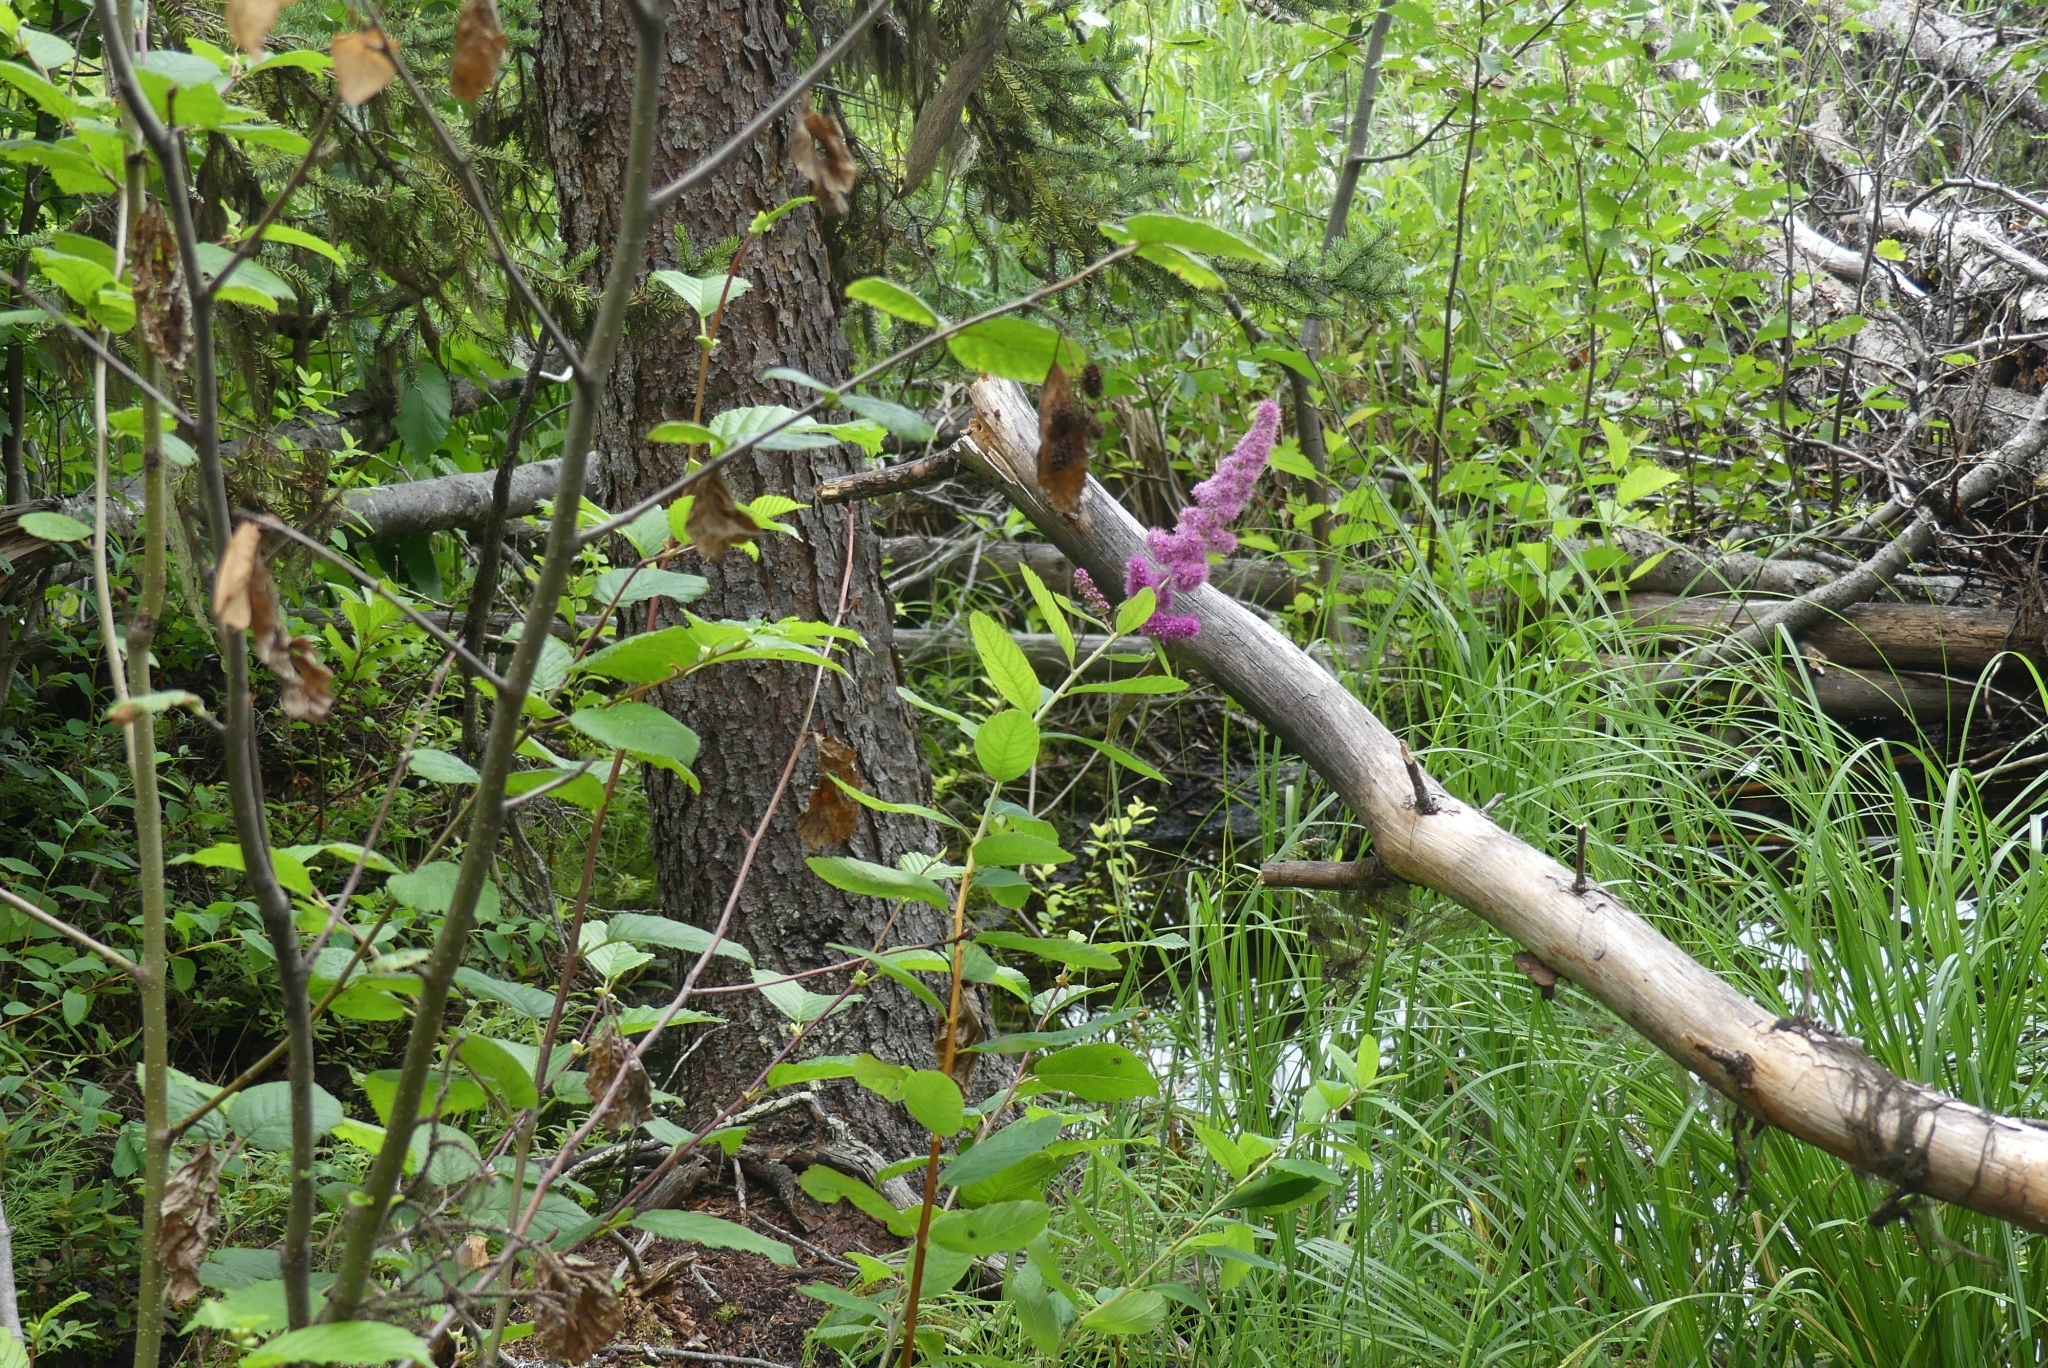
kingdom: Plantae
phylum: Tracheophyta
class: Magnoliopsida
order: Rosales
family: Rosaceae
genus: Spiraea
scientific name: Spiraea douglasii
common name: Steeplebush
